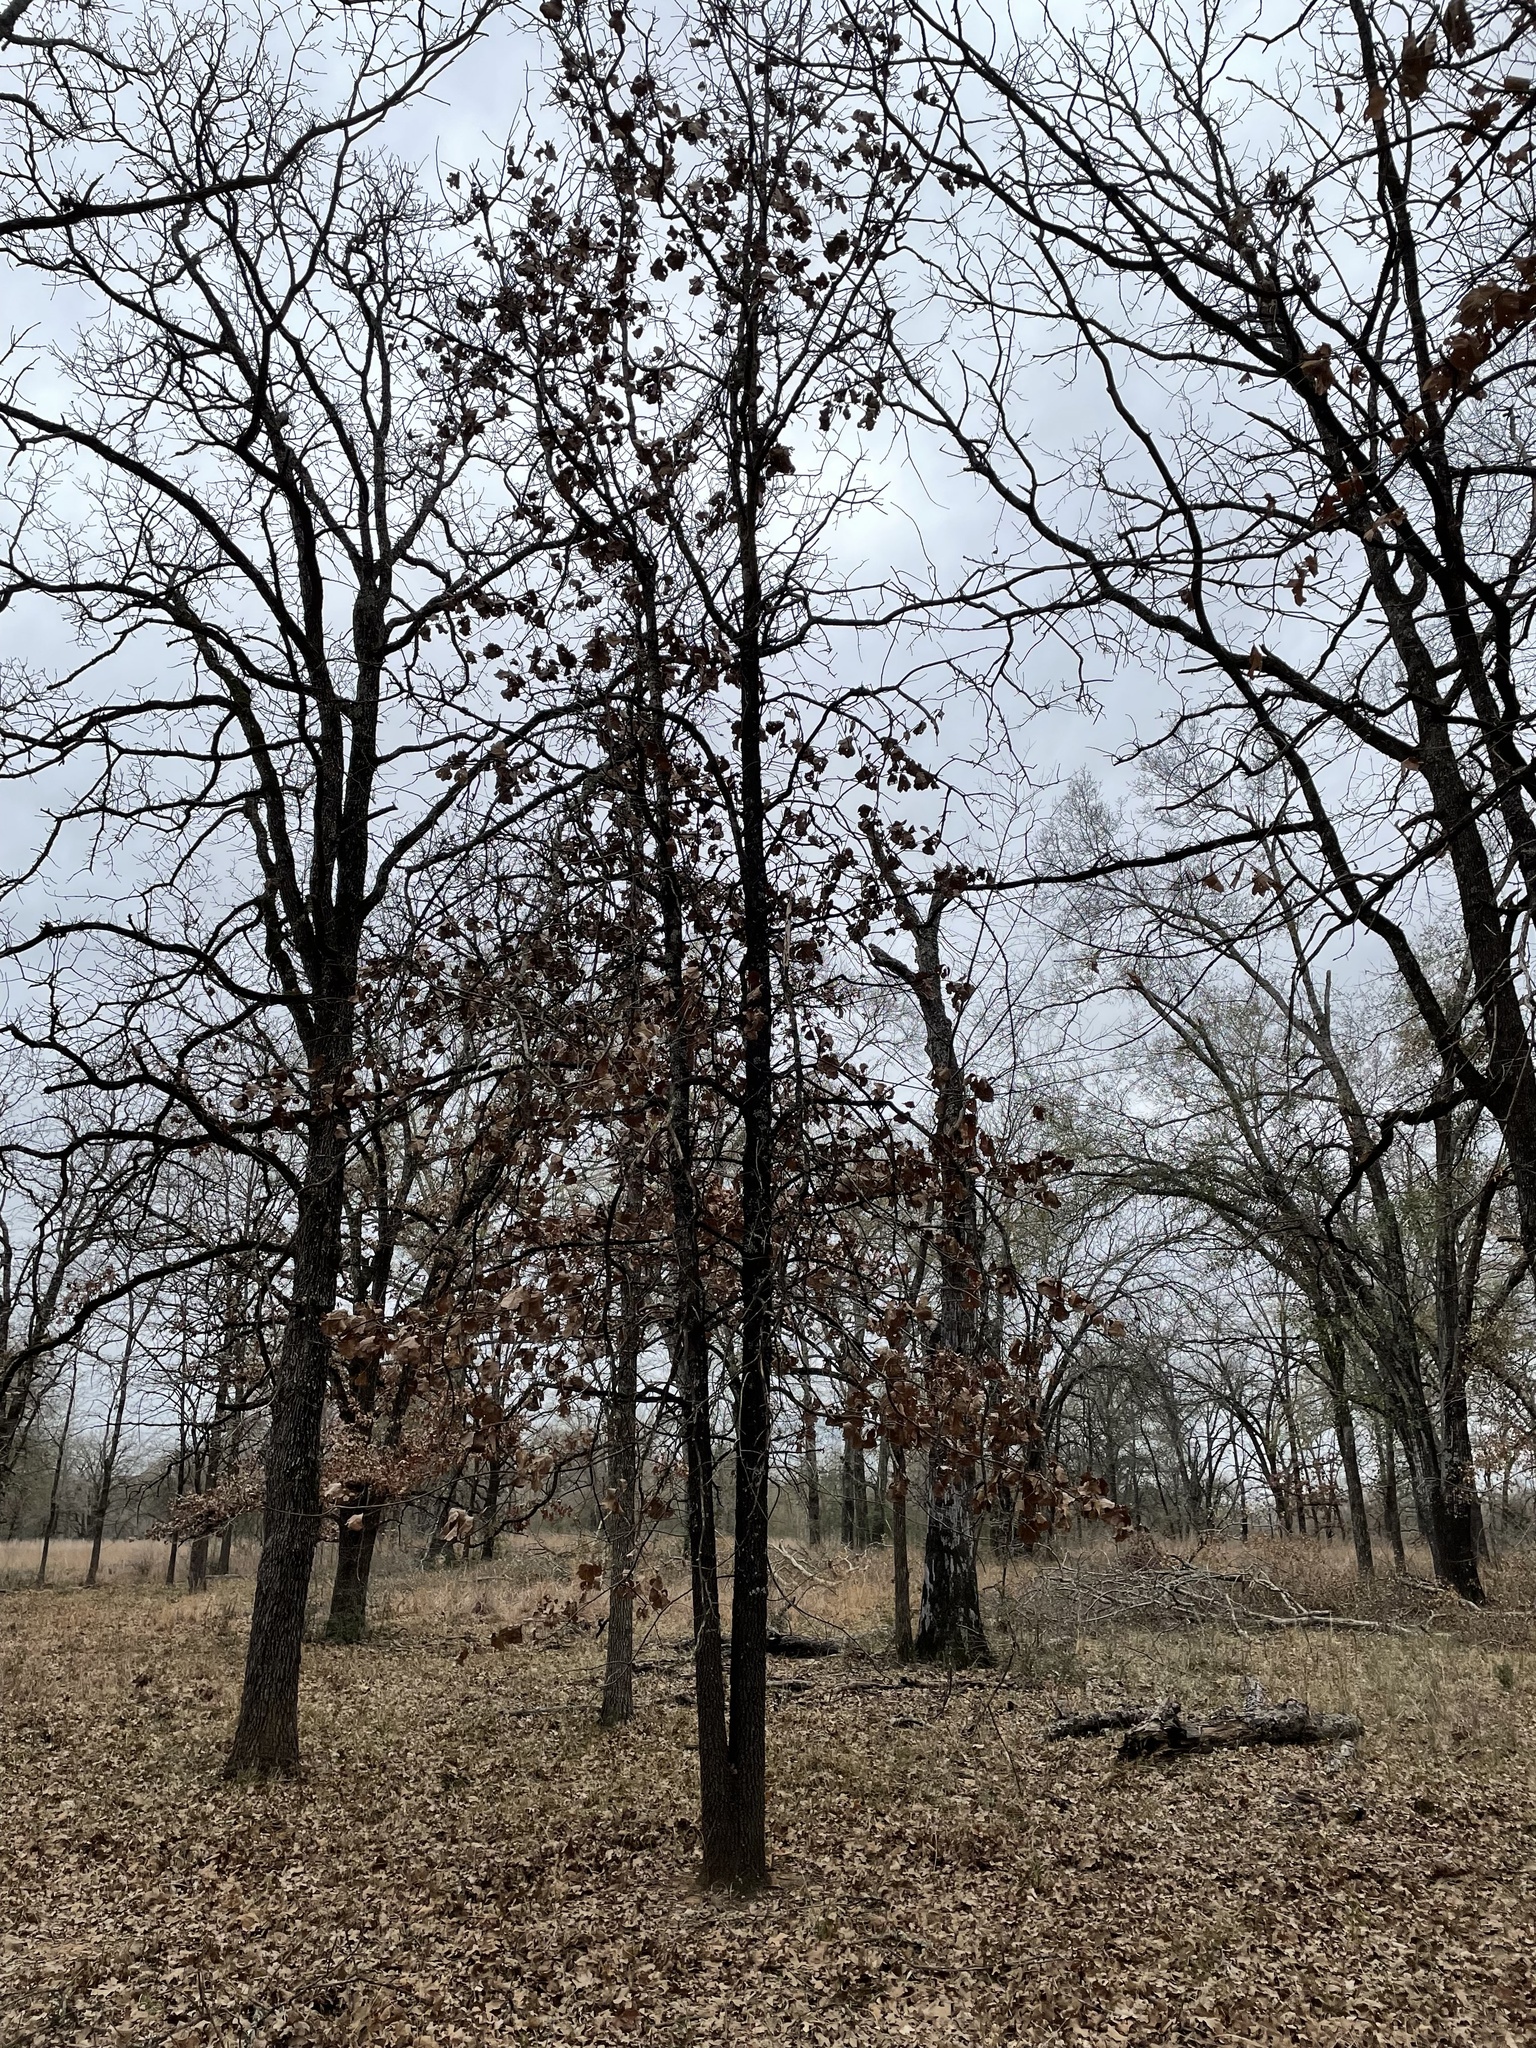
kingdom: Plantae
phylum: Tracheophyta
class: Magnoliopsida
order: Fagales
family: Fagaceae
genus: Quercus
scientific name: Quercus marilandica
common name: Blackjack oak
